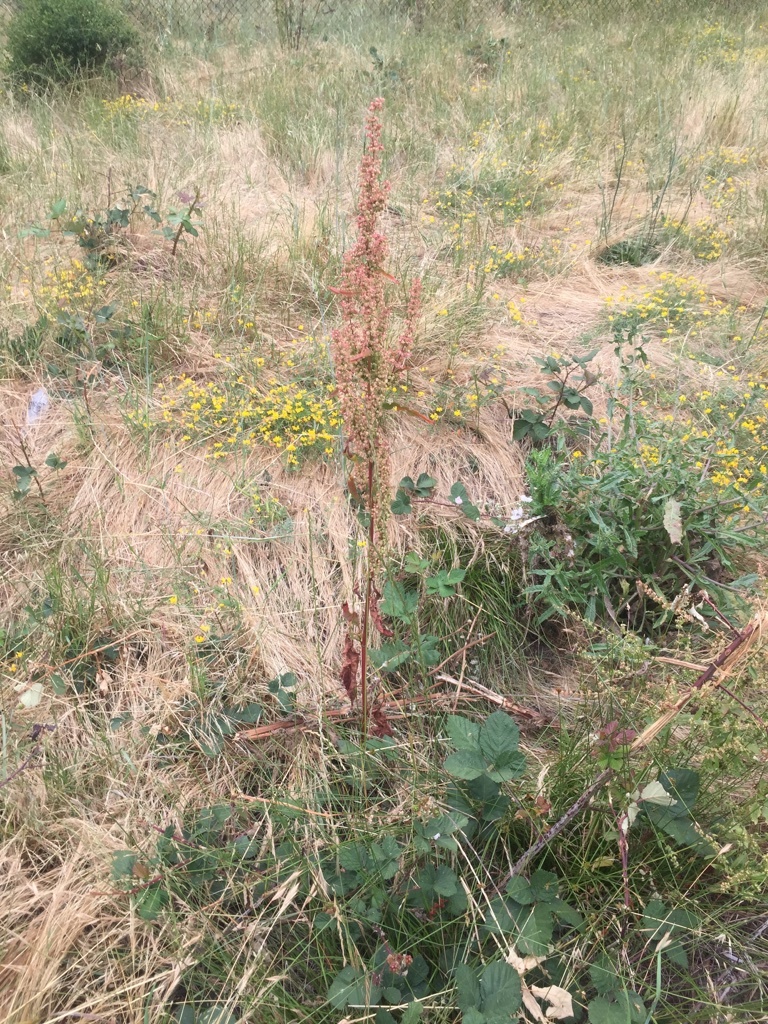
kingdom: Plantae
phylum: Tracheophyta
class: Magnoliopsida
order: Caryophyllales
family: Polygonaceae
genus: Rumex
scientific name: Rumex crispus
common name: Curled dock
